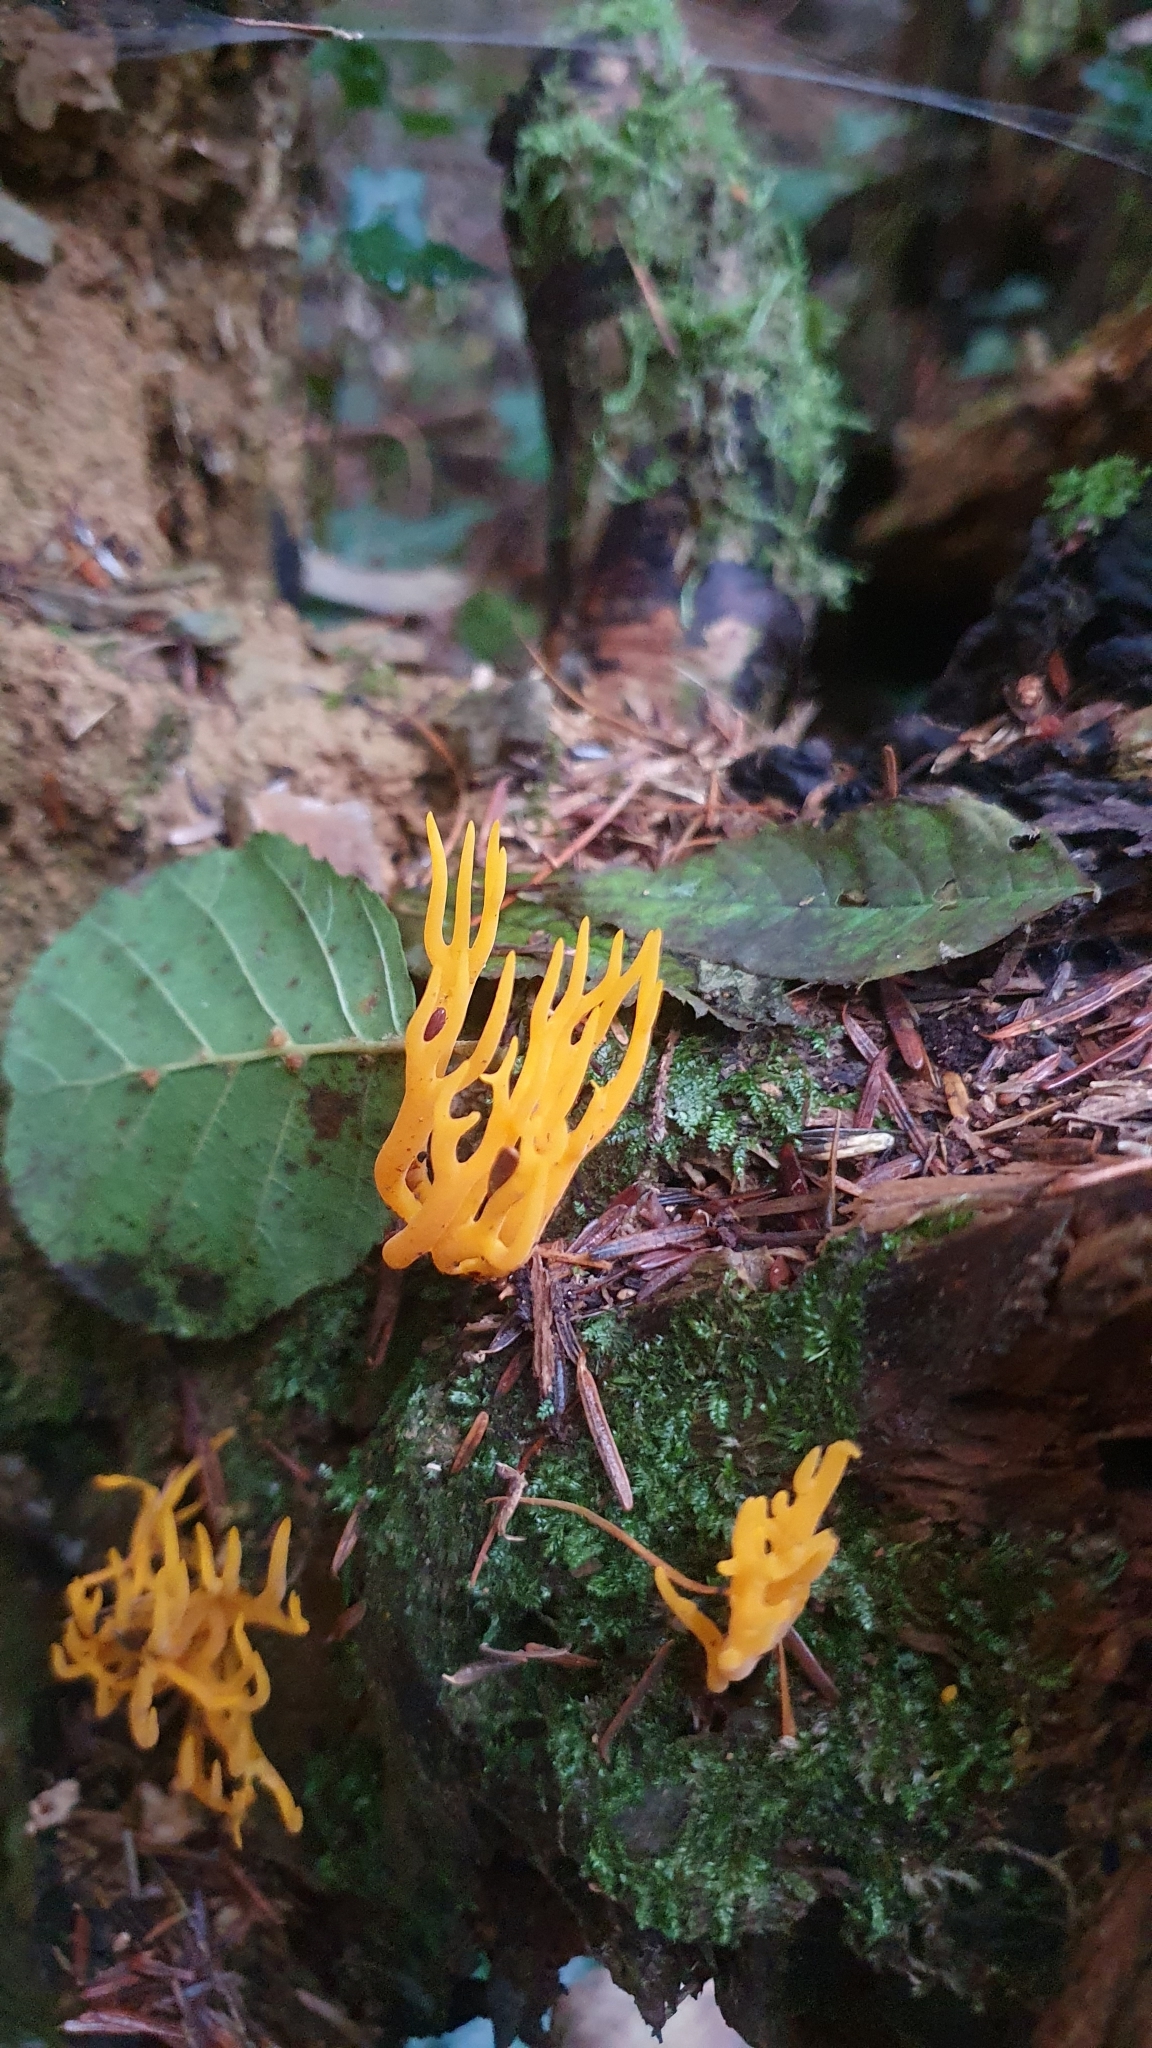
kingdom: Fungi
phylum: Basidiomycota
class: Dacrymycetes
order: Dacrymycetales
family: Dacrymycetaceae
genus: Calocera
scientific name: Calocera viscosa
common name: Yellow stagshorn
